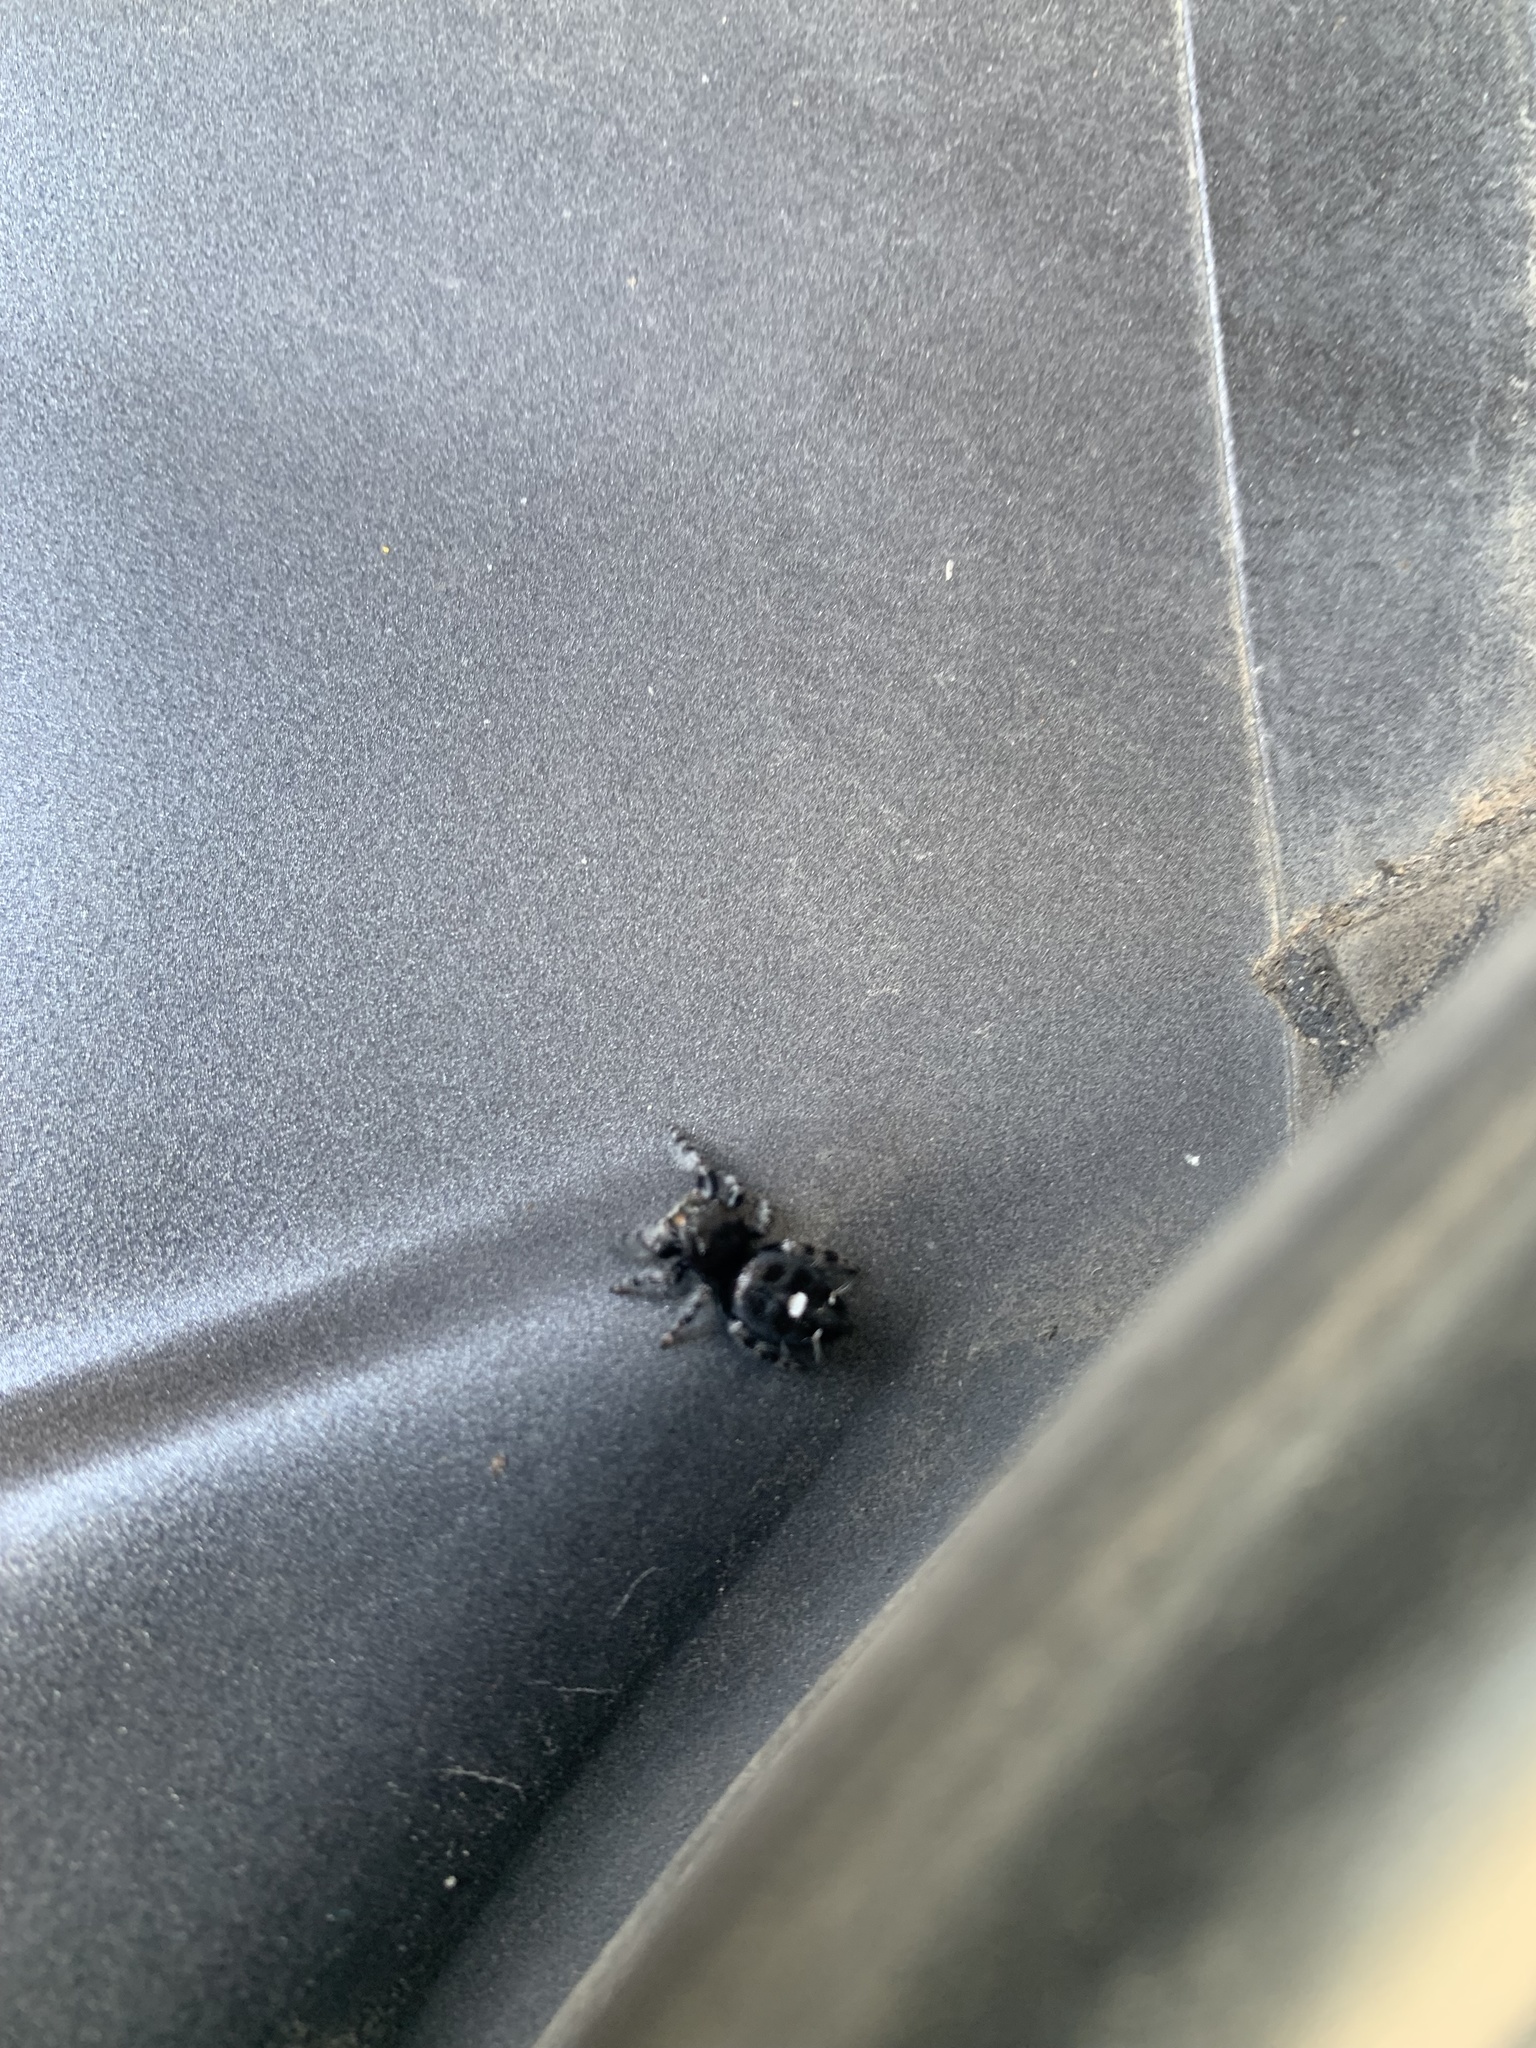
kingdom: Animalia
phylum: Arthropoda
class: Arachnida
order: Araneae
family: Salticidae
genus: Phidippus
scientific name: Phidippus audax
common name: Bold jumper
